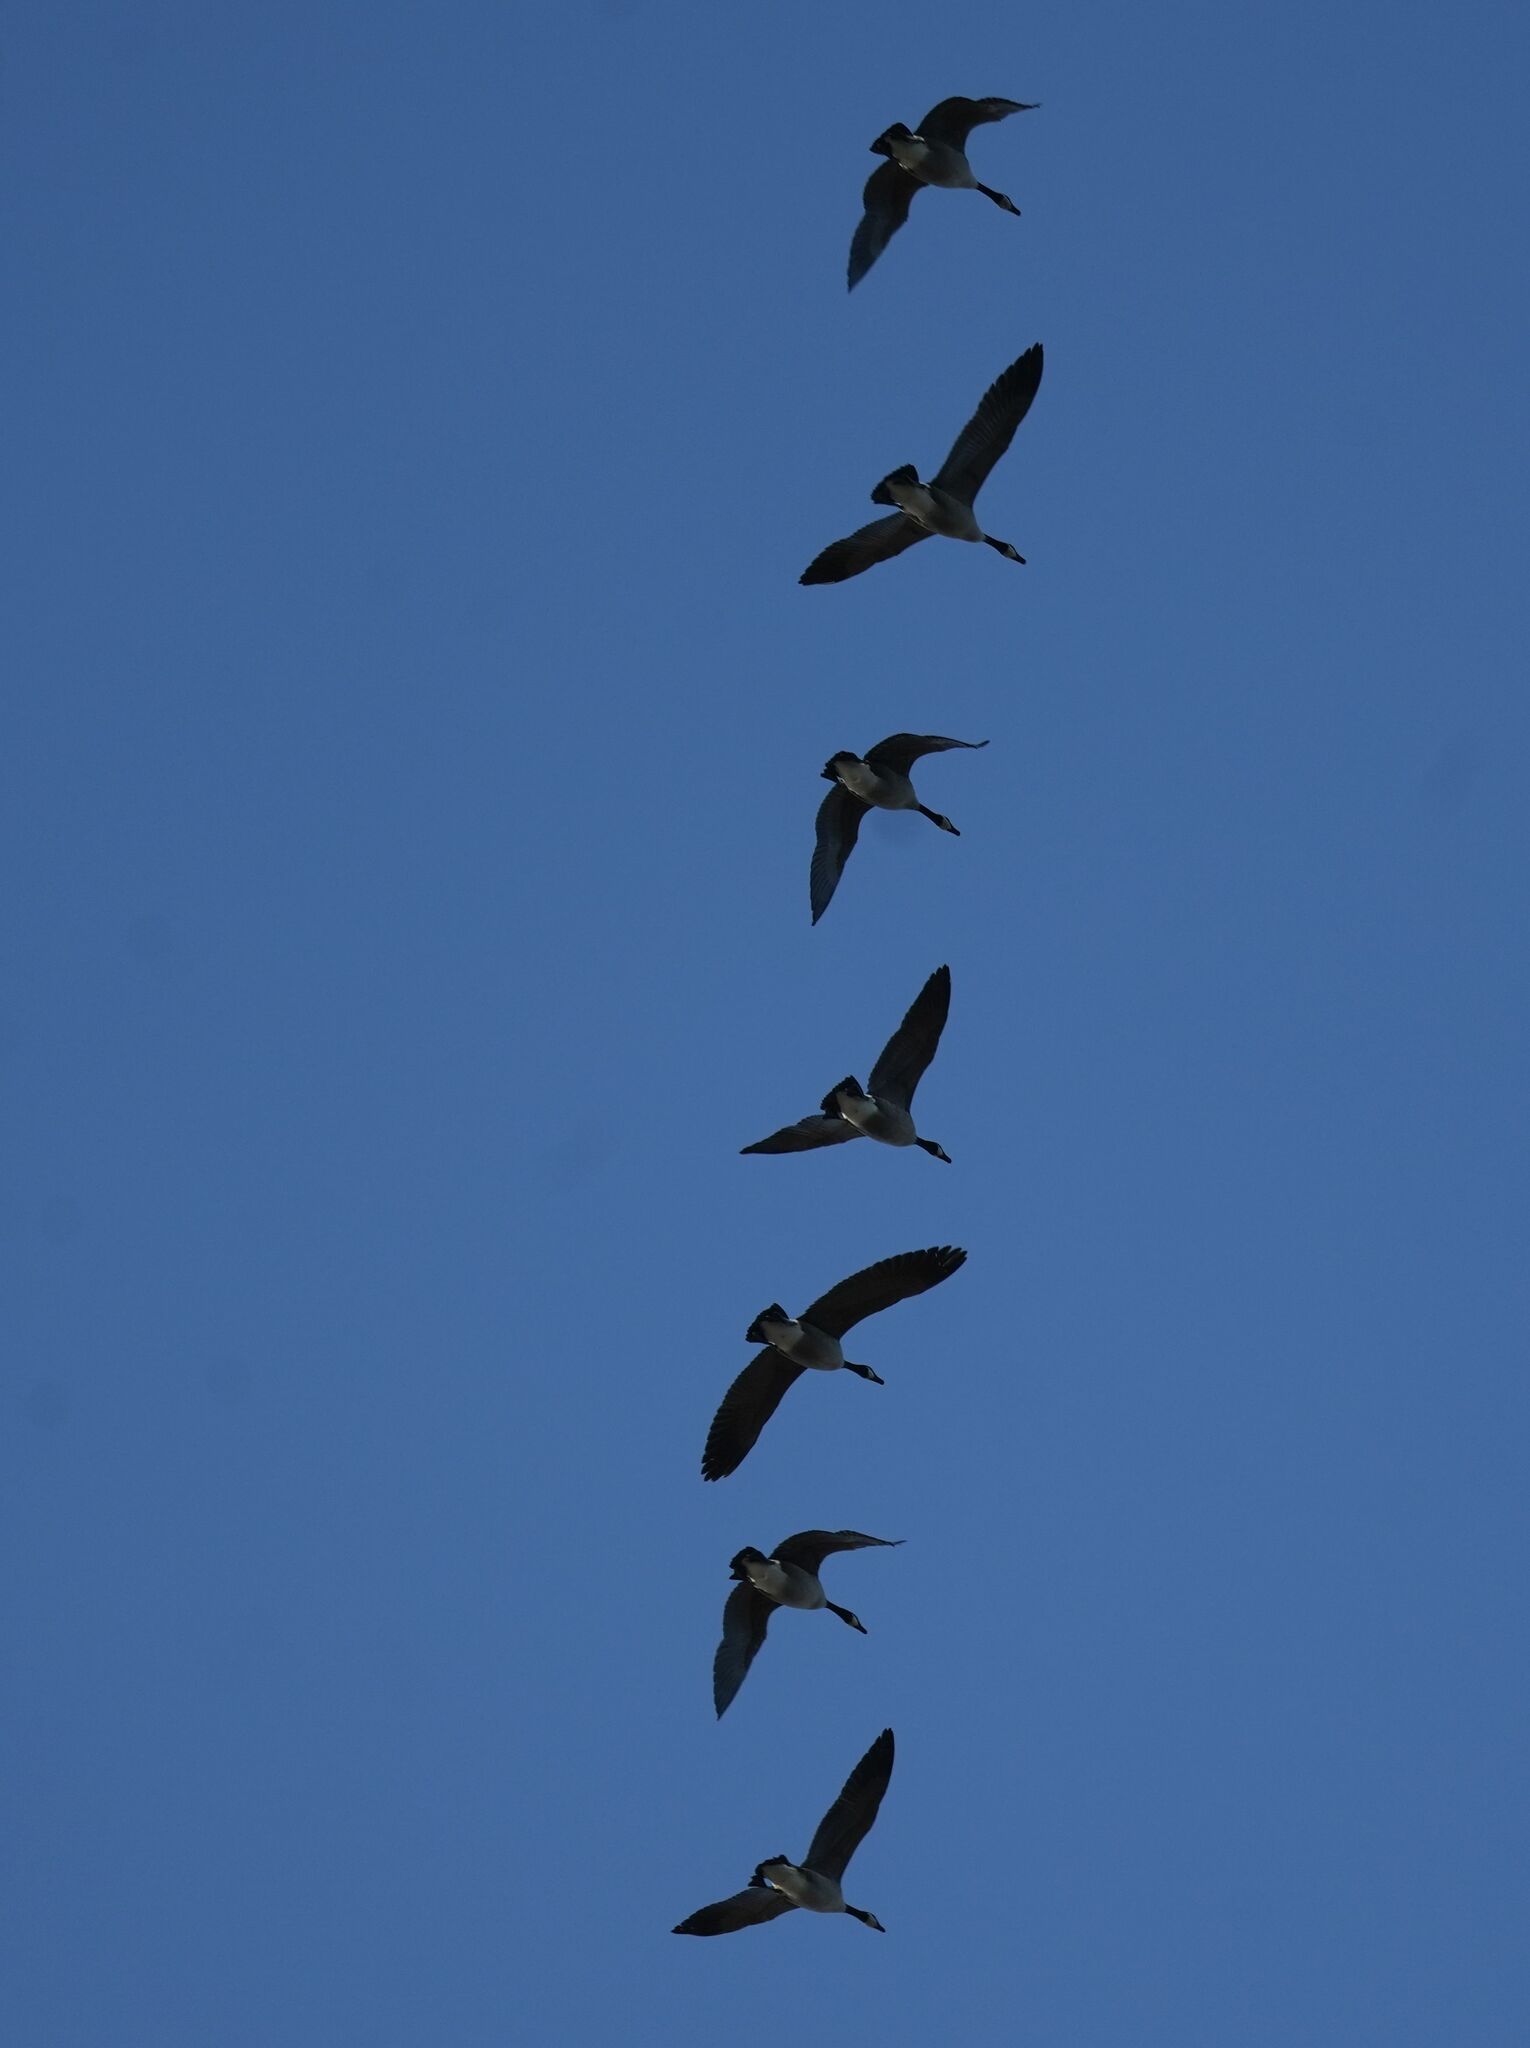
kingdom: Animalia
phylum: Chordata
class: Aves
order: Anseriformes
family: Anatidae
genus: Branta
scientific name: Branta canadensis
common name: Canada goose
